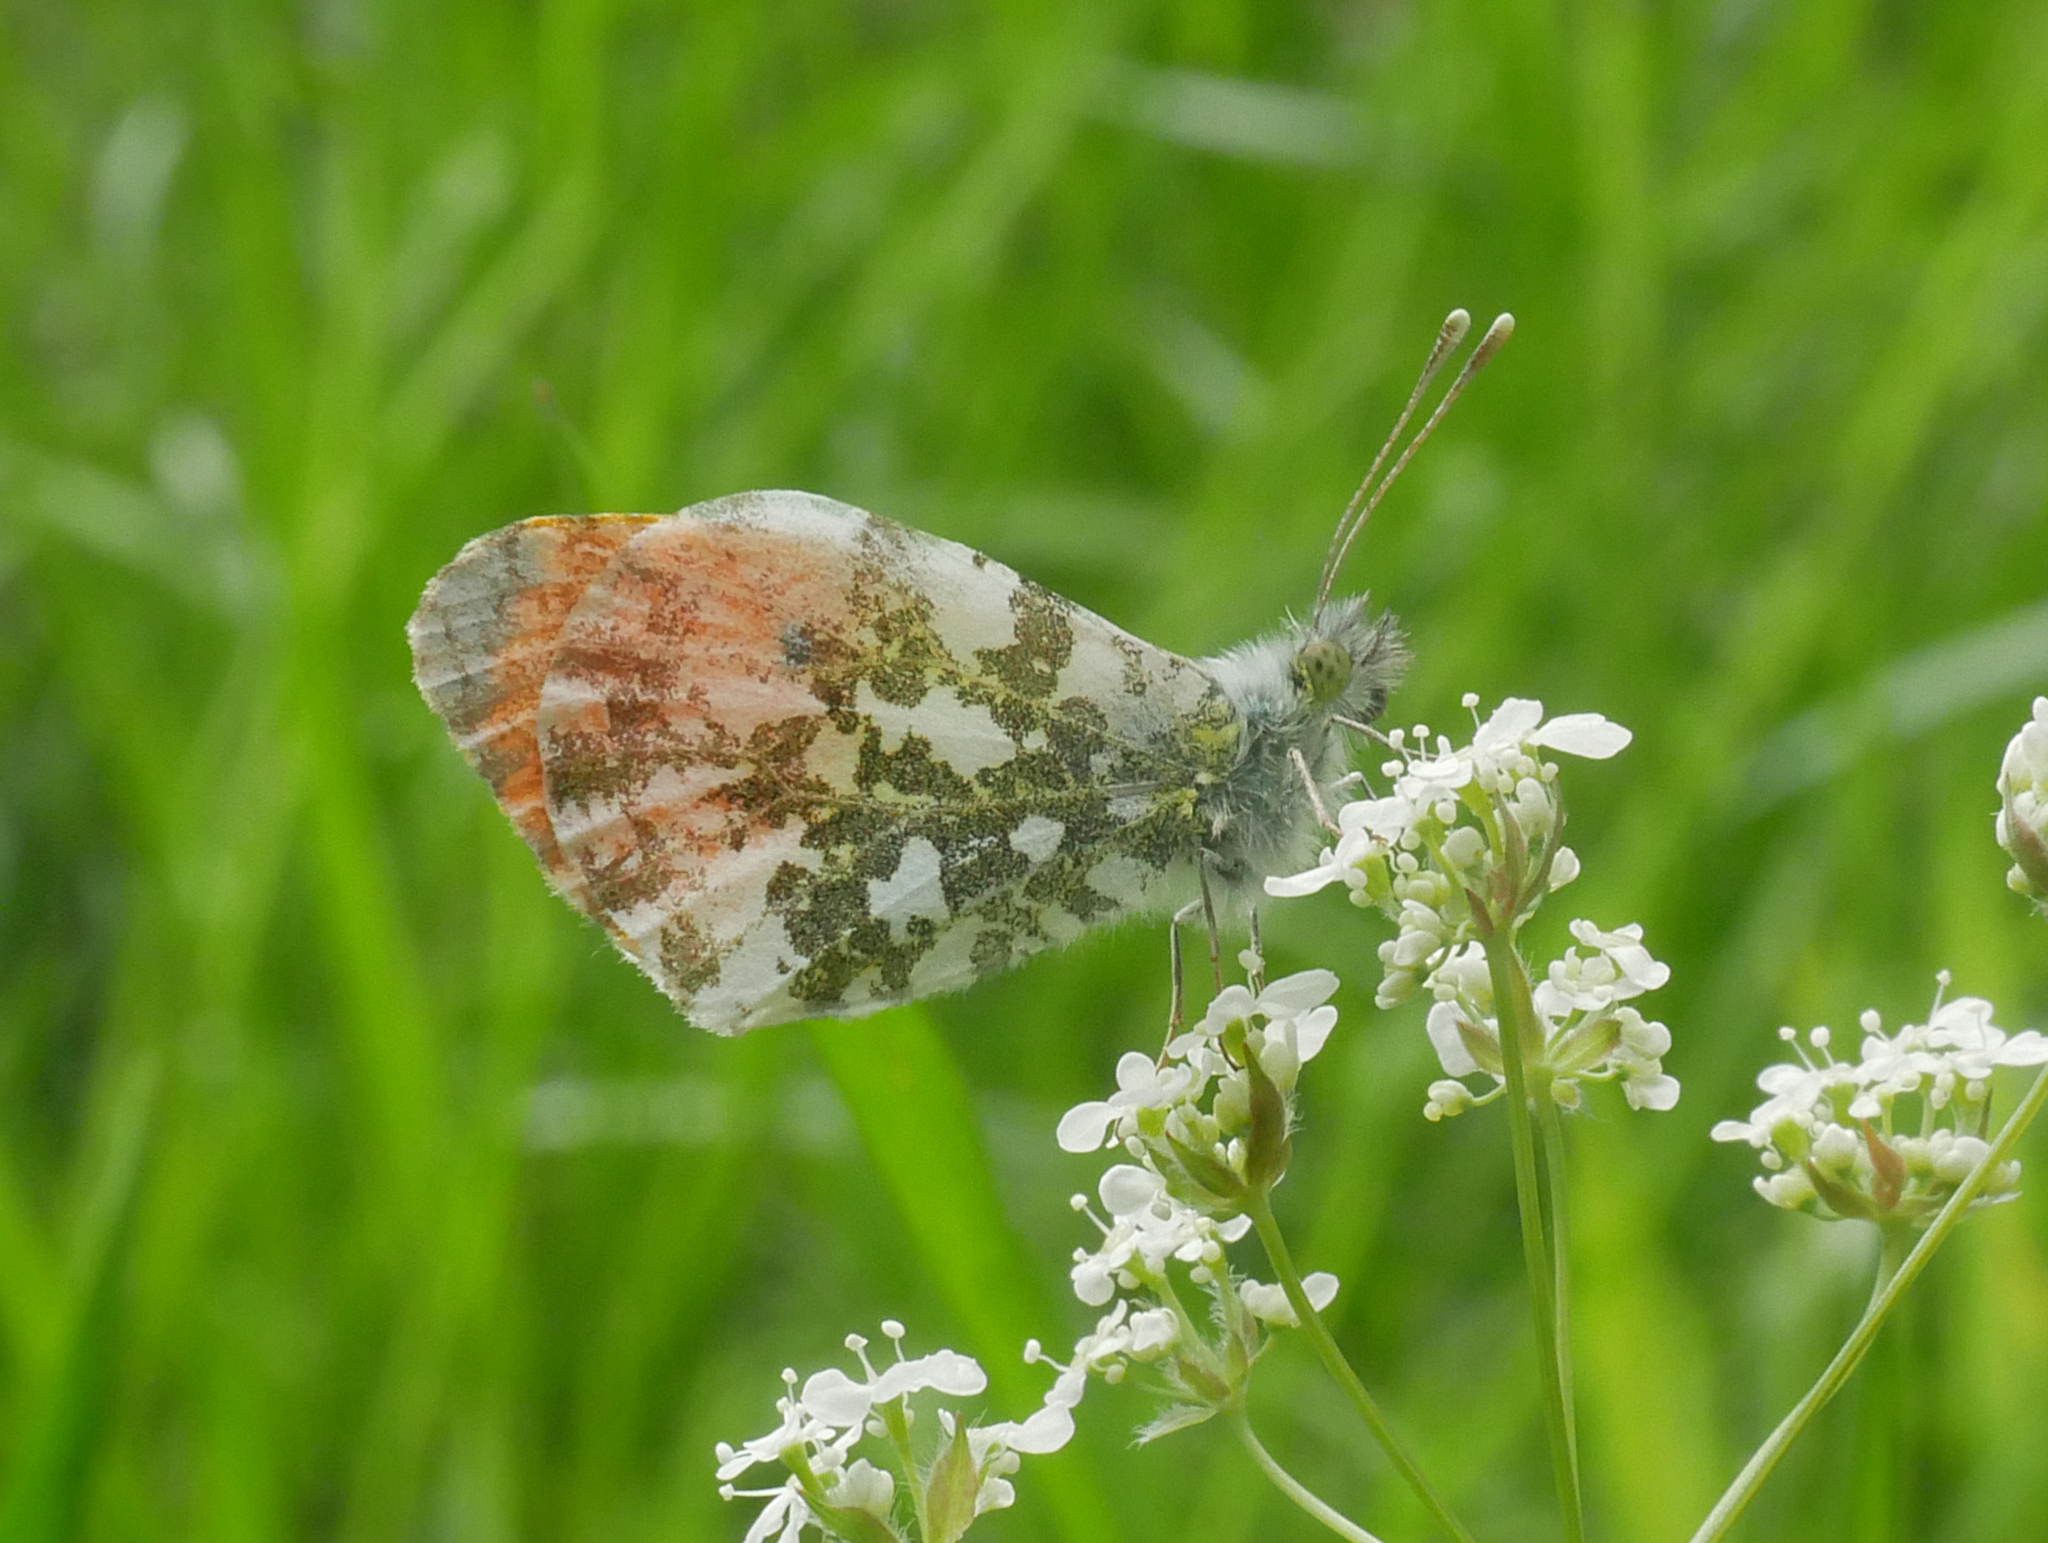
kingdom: Animalia
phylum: Arthropoda
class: Insecta
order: Lepidoptera
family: Pieridae
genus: Anthocharis
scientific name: Anthocharis cardamines
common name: Orange-tip
